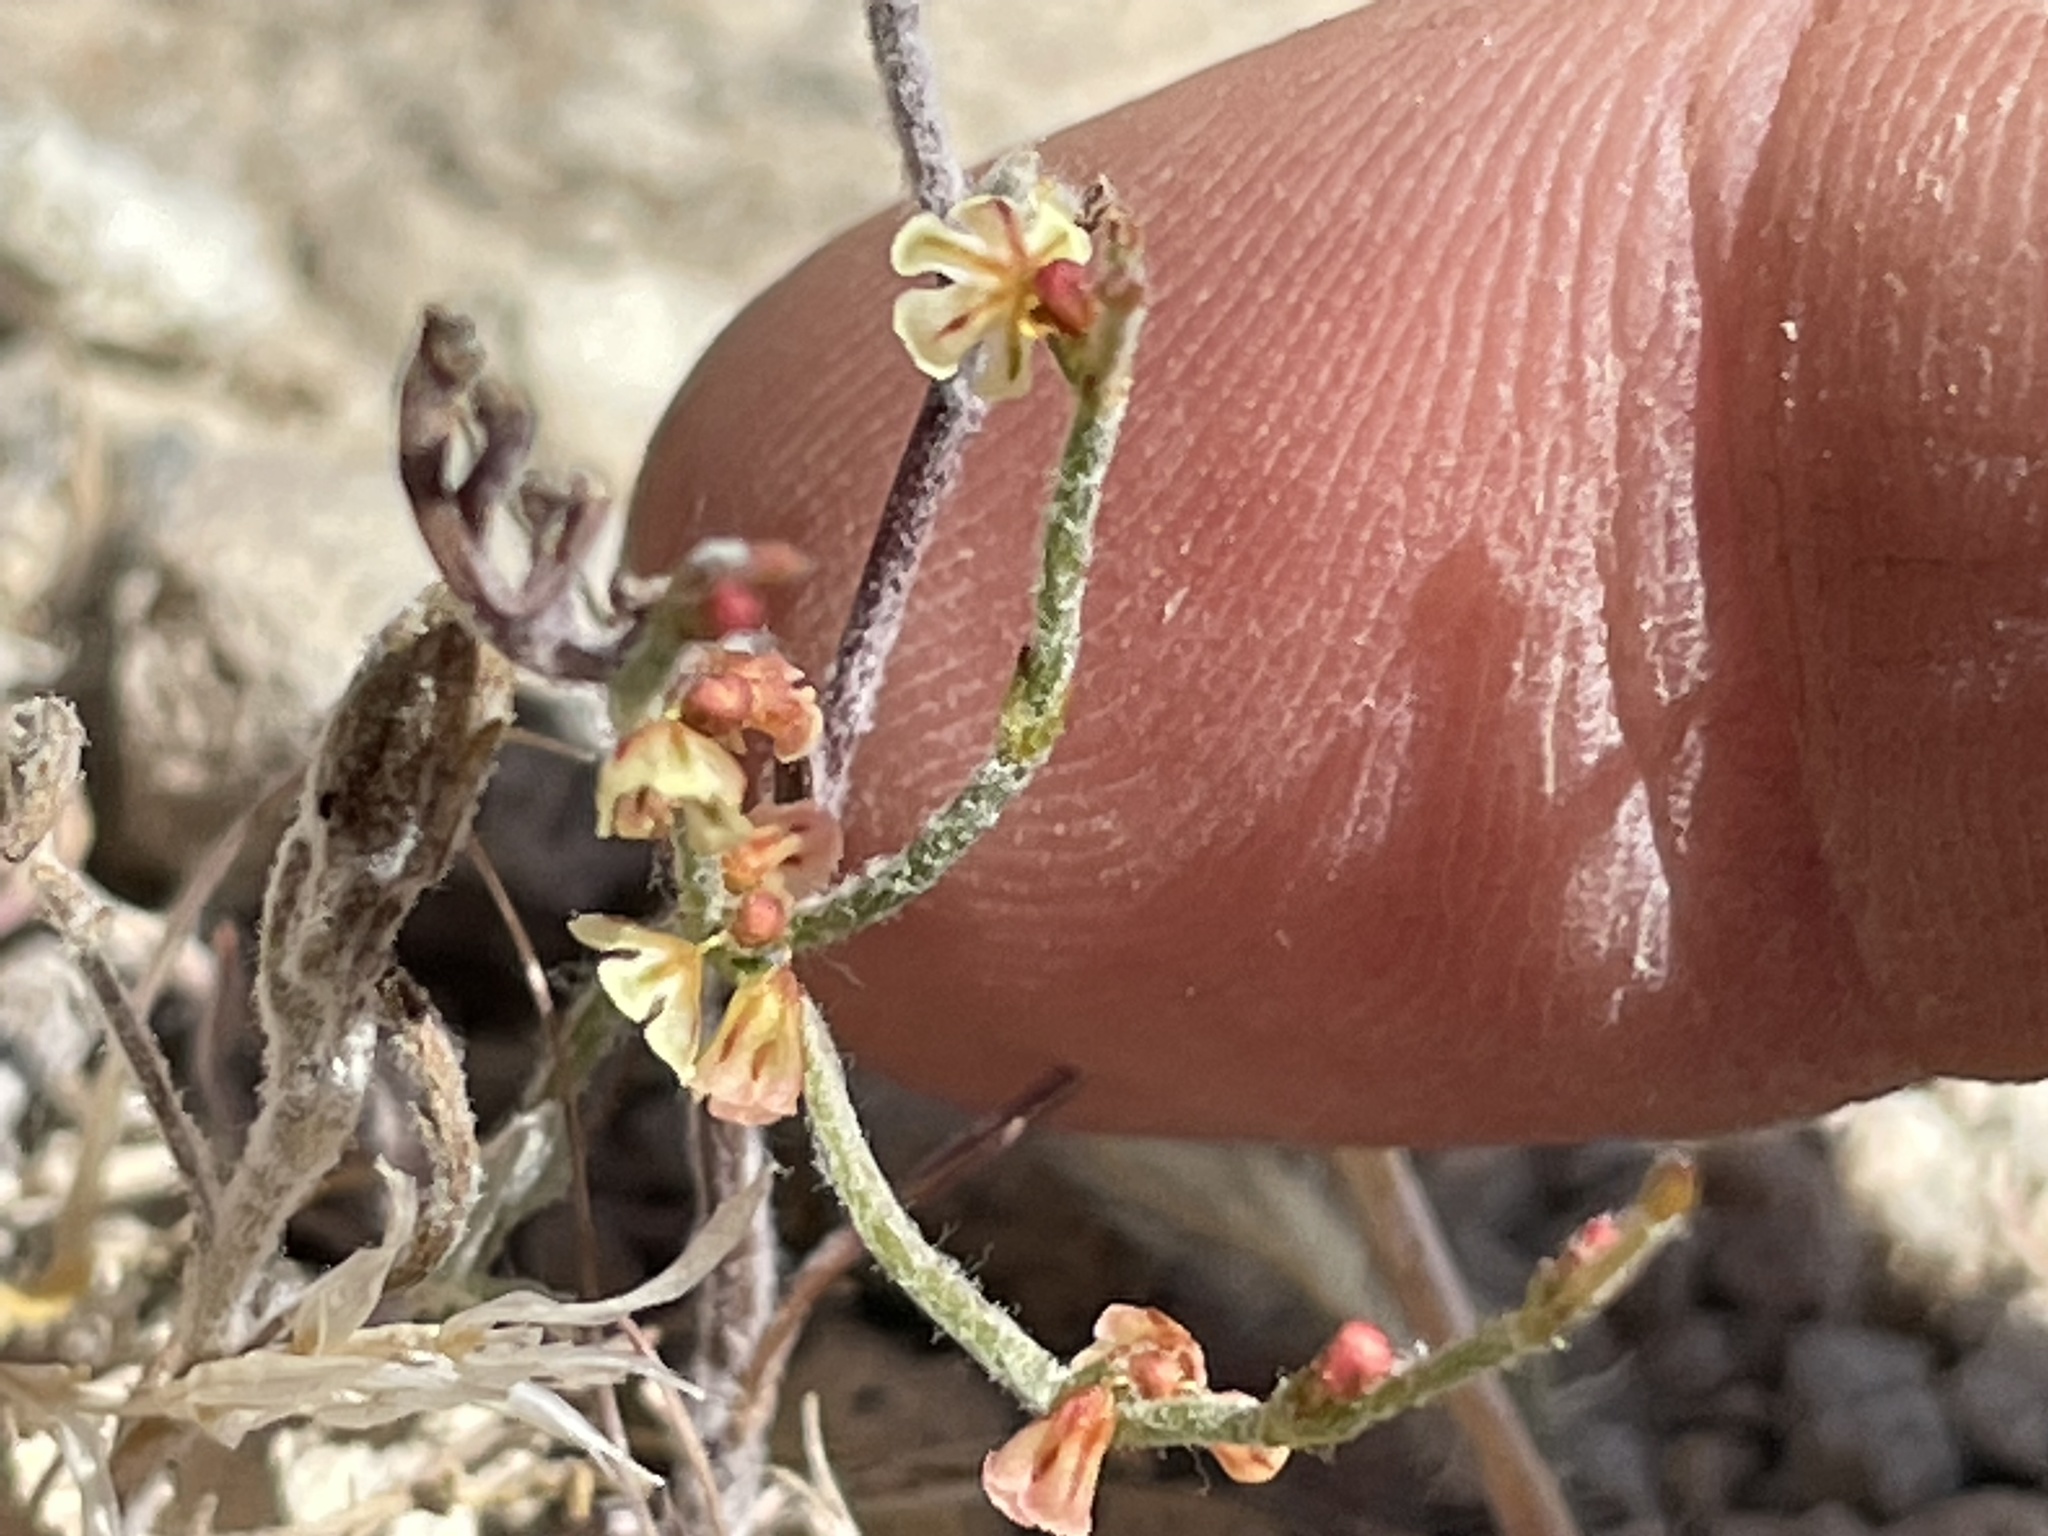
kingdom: Plantae
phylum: Tracheophyta
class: Magnoliopsida
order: Caryophyllales
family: Polygonaceae
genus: Eriogonum
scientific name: Eriogonum nidularium
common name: Bird's-nest wild buckwheat
